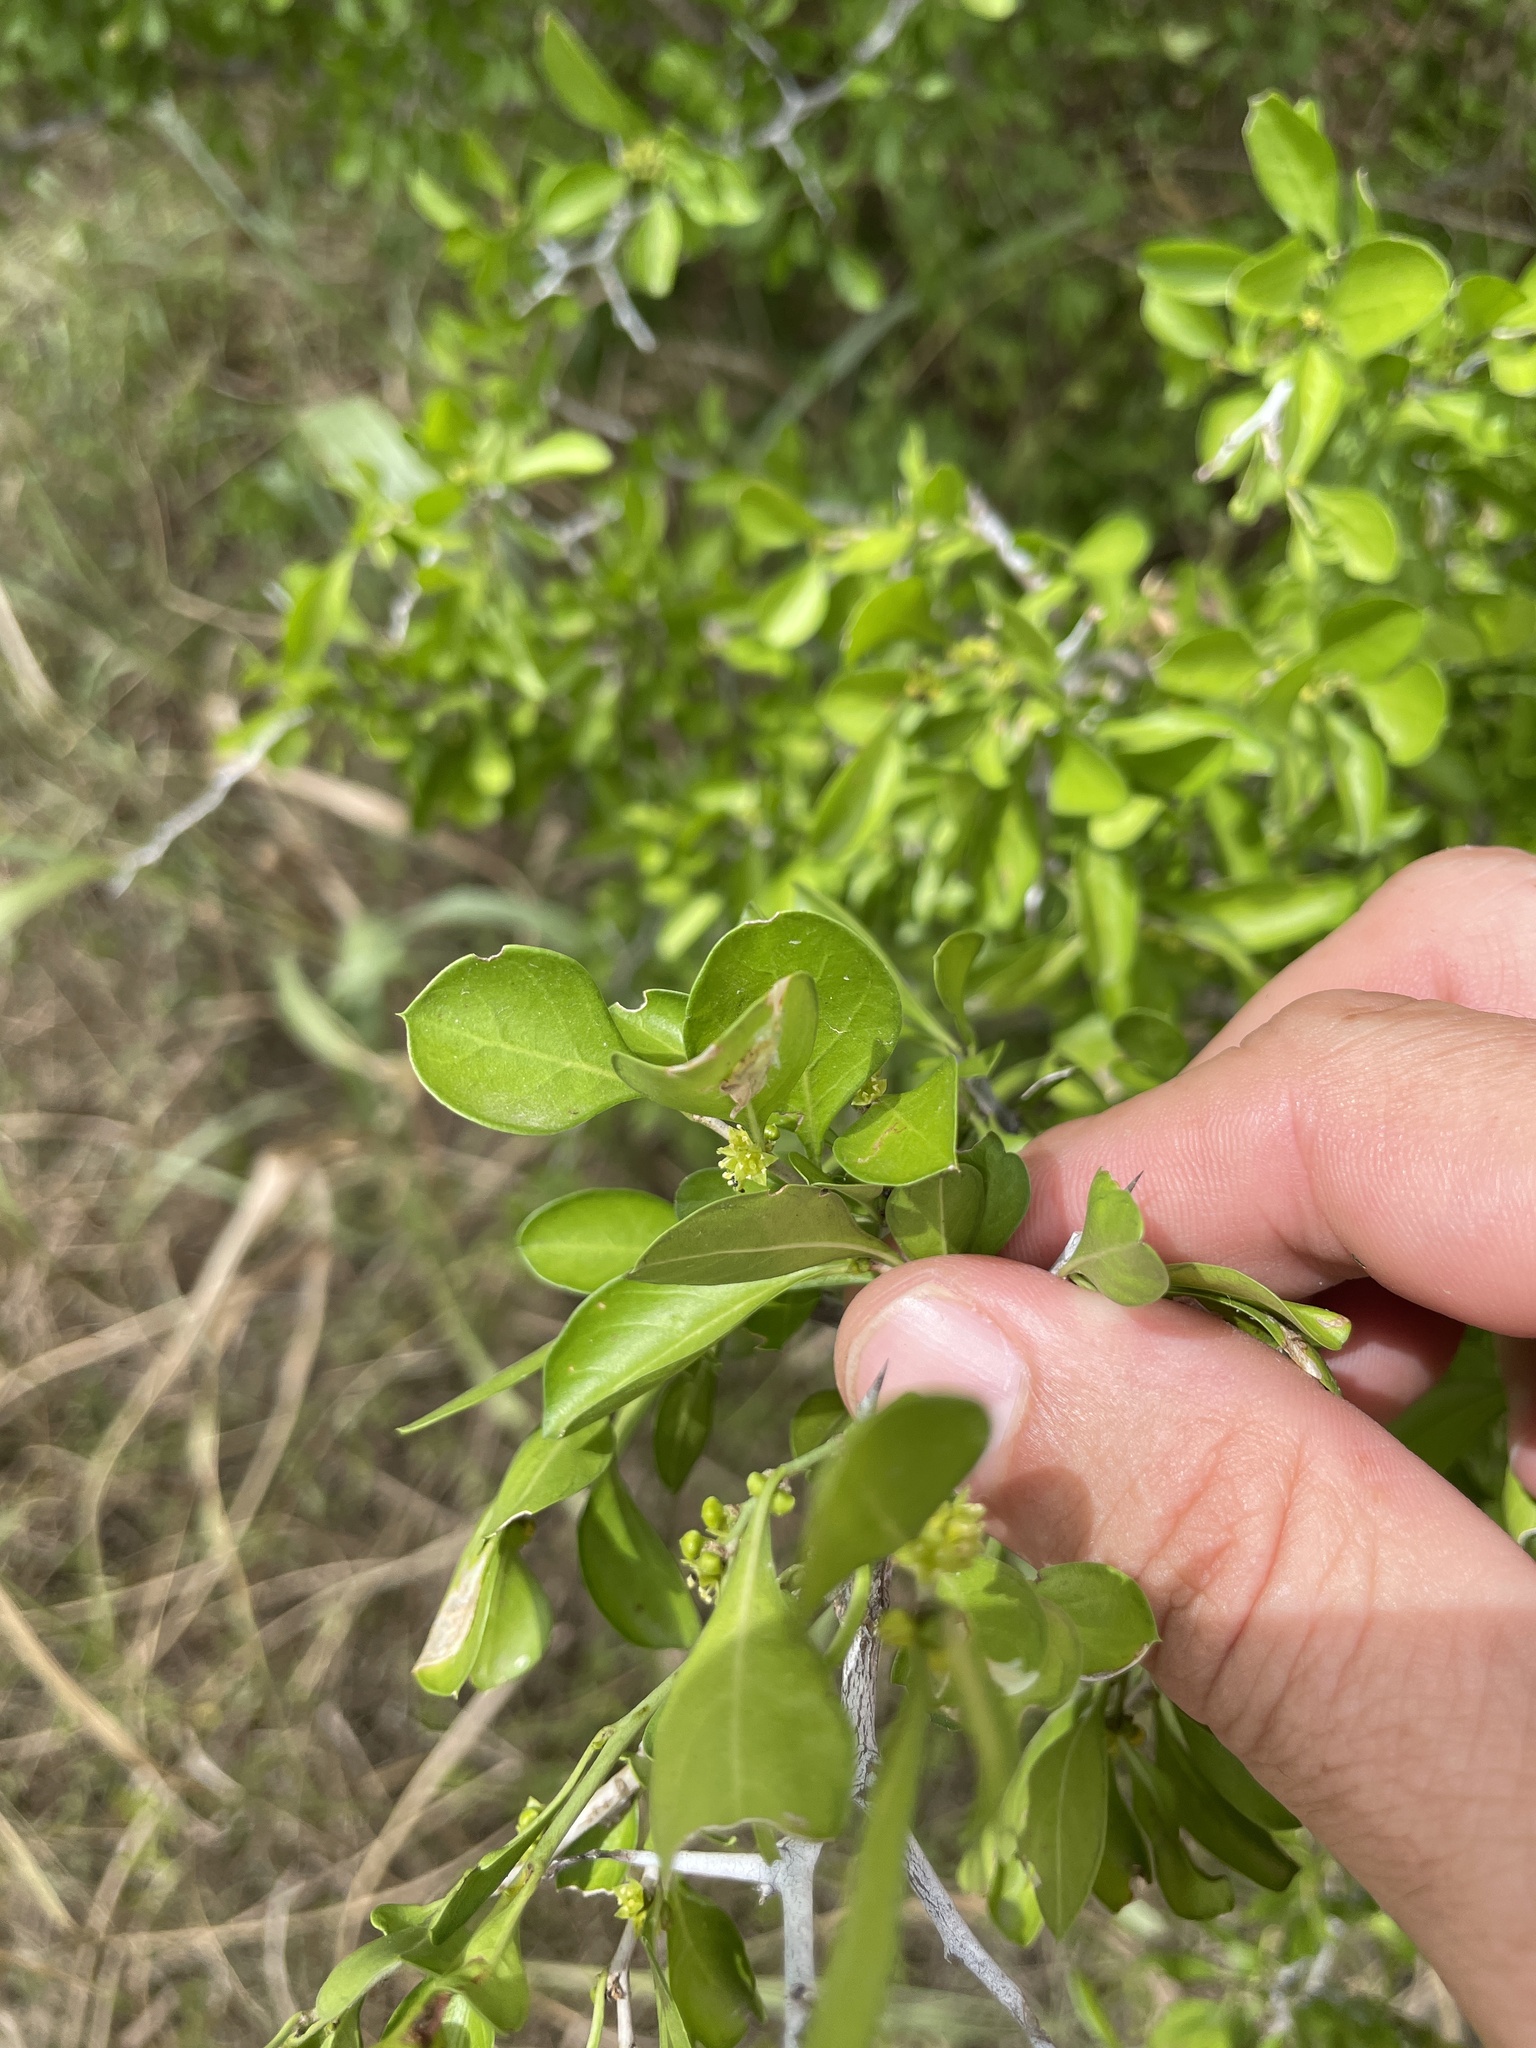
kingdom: Plantae
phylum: Tracheophyta
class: Magnoliopsida
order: Rosales
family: Rhamnaceae
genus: Condalia
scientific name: Condalia hookeri
